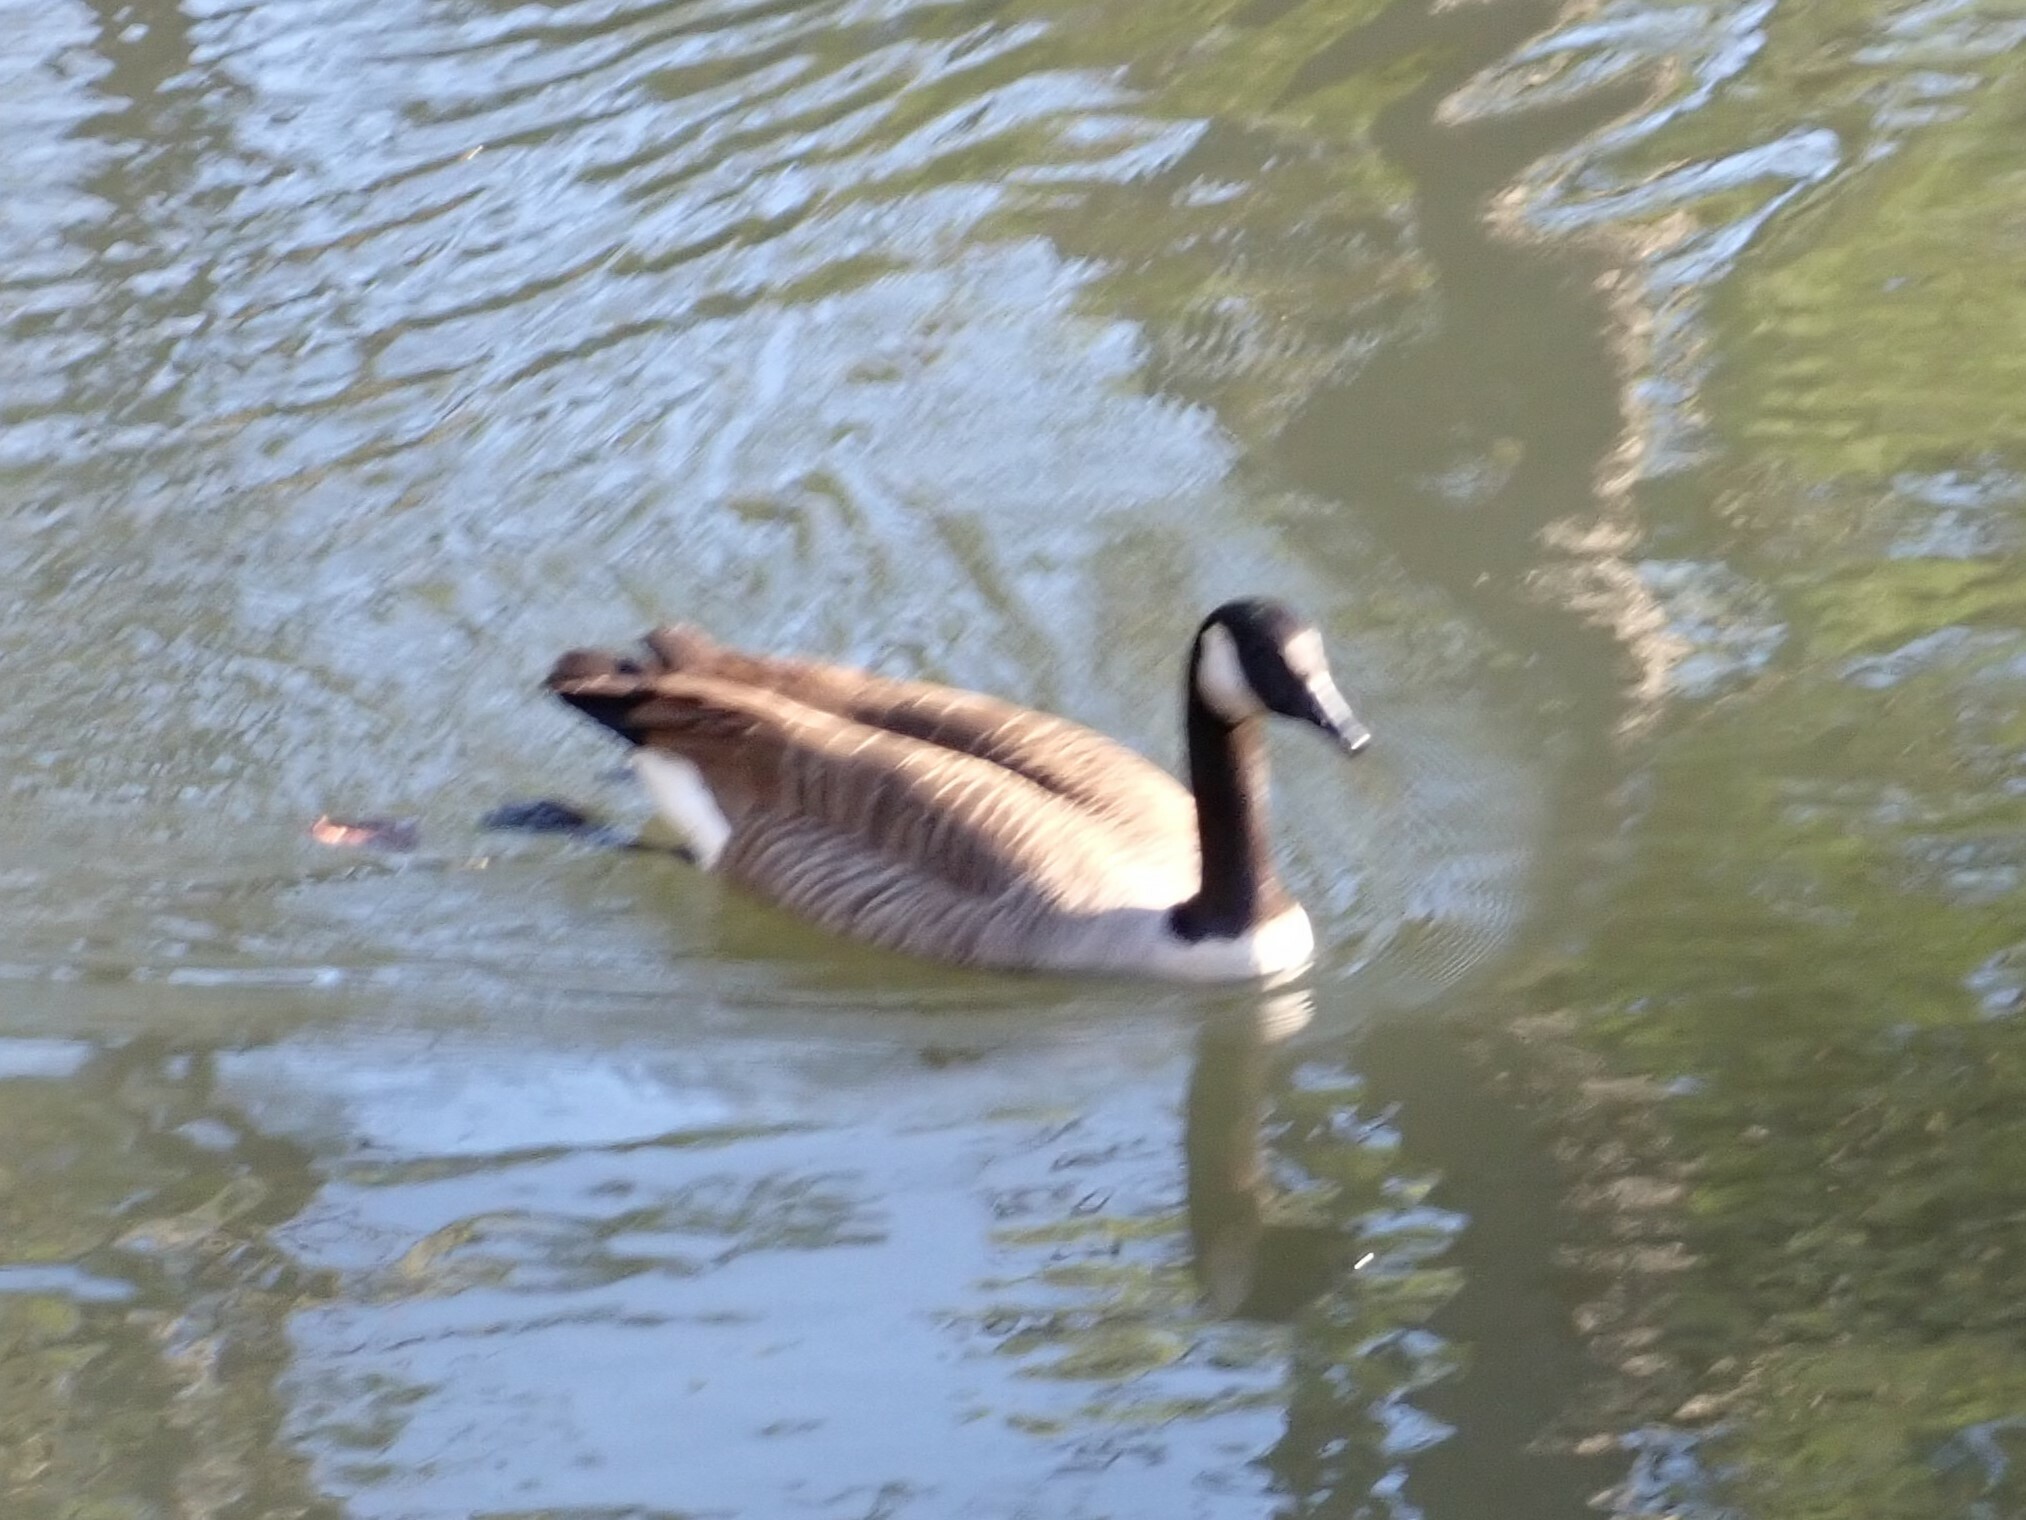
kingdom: Animalia
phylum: Chordata
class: Aves
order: Anseriformes
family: Anatidae
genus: Branta
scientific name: Branta canadensis
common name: Canada goose
